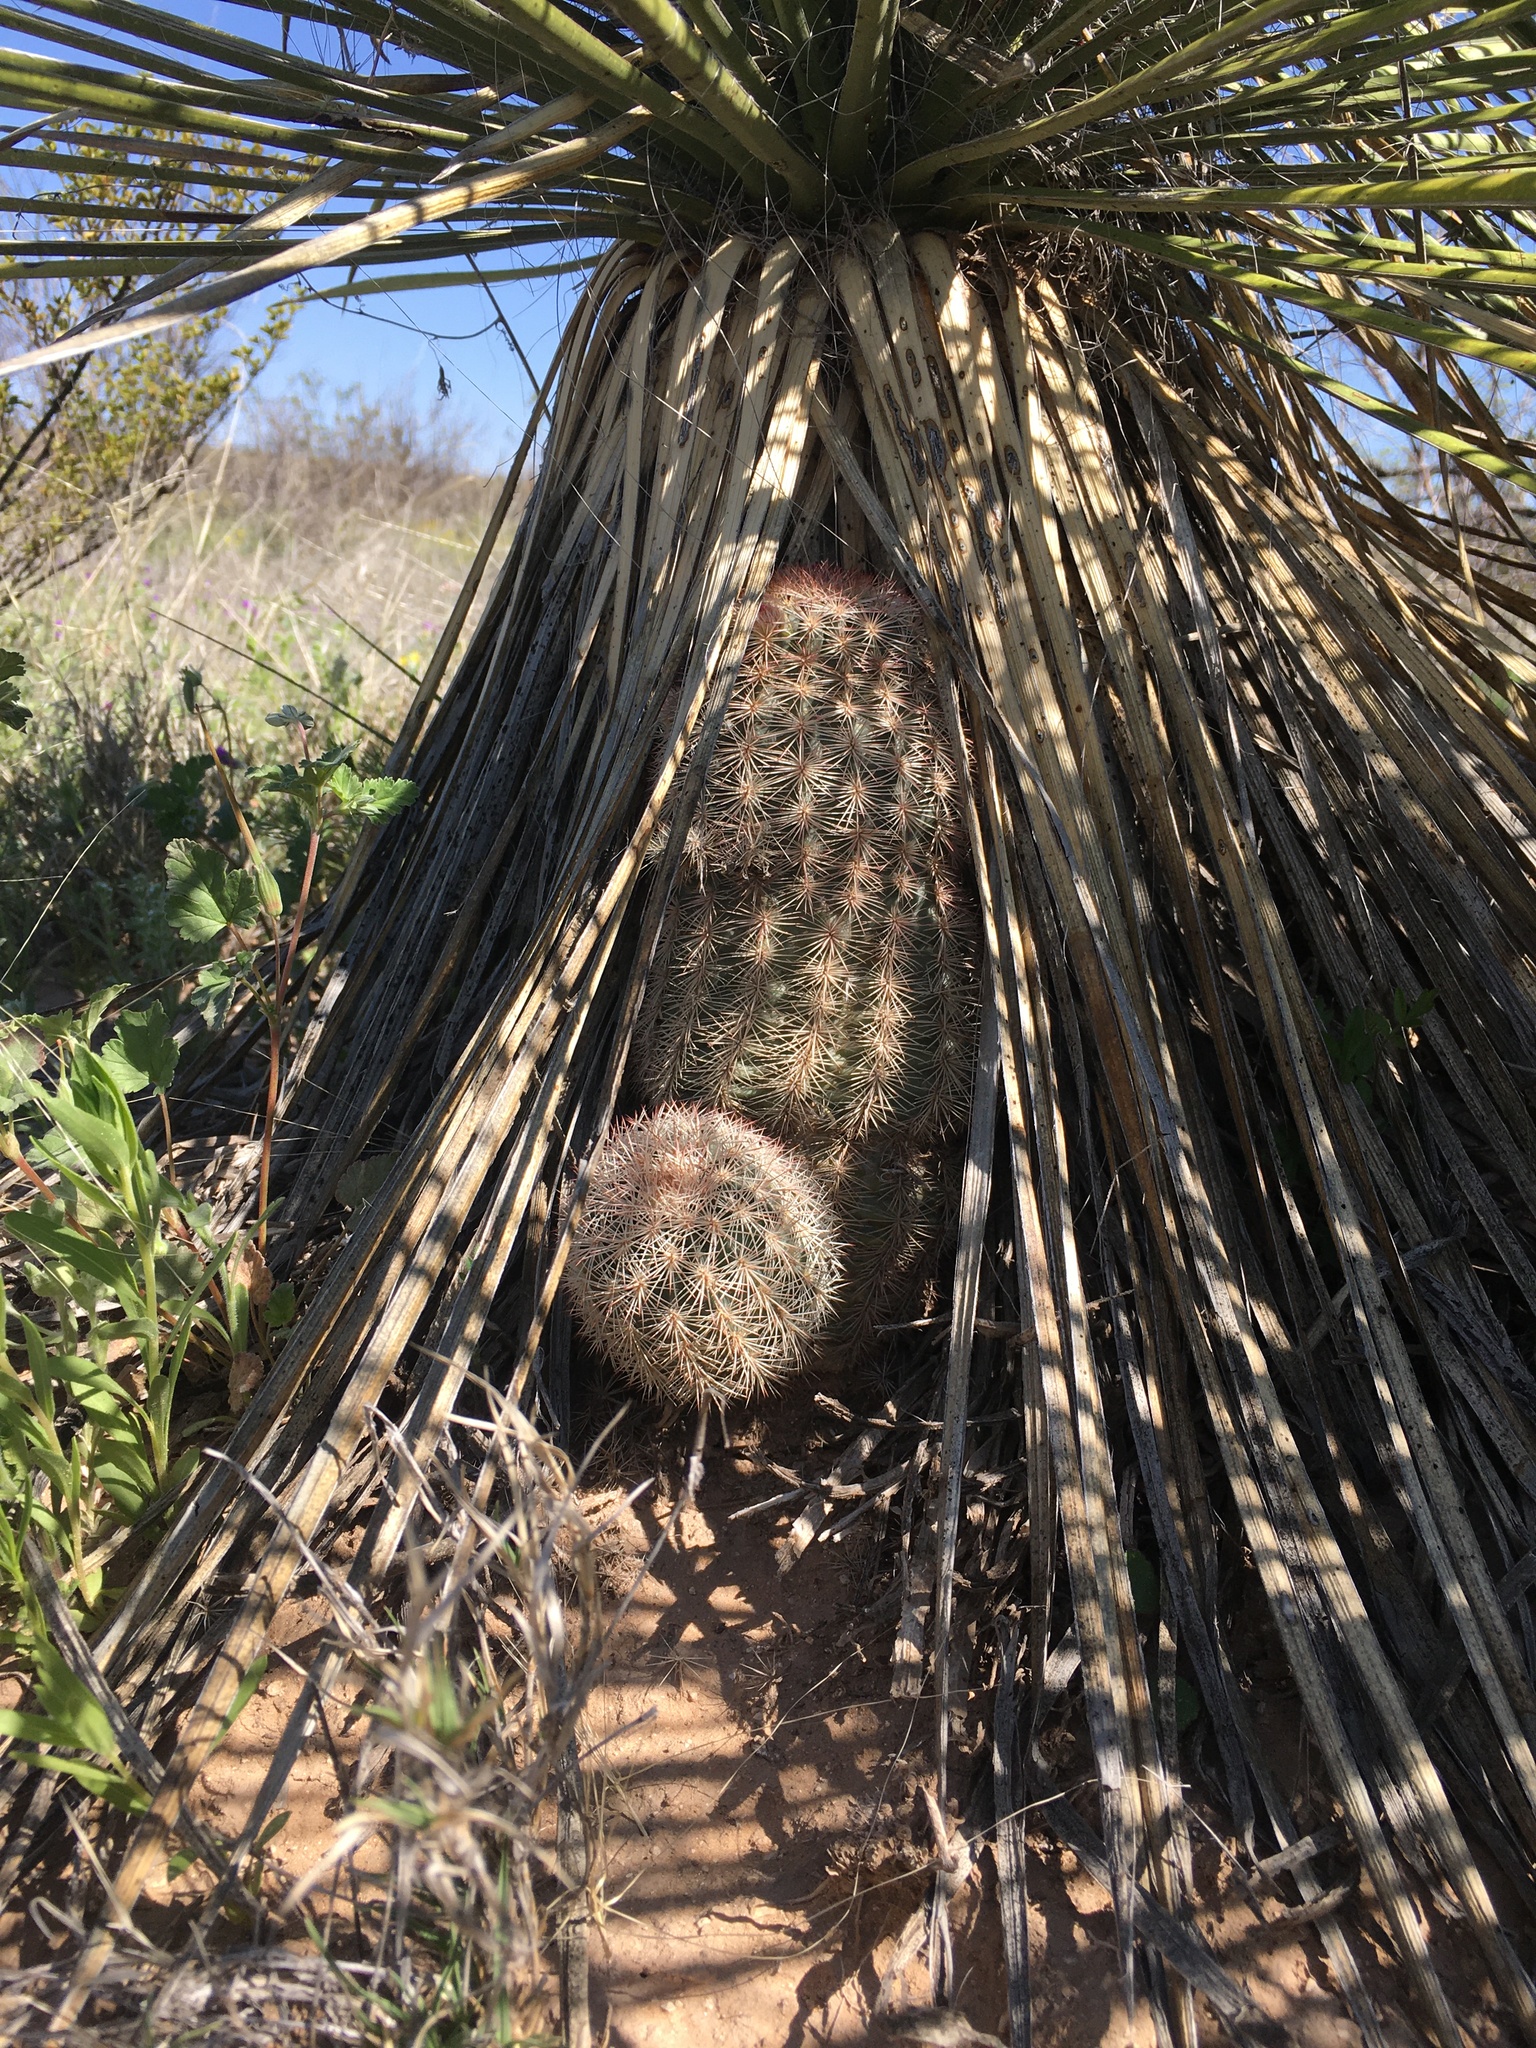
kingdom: Plantae
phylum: Tracheophyta
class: Magnoliopsida
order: Caryophyllales
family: Cactaceae
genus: Echinocereus
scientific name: Echinocereus dasyacanthus
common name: Spiny hedgehog cactus
